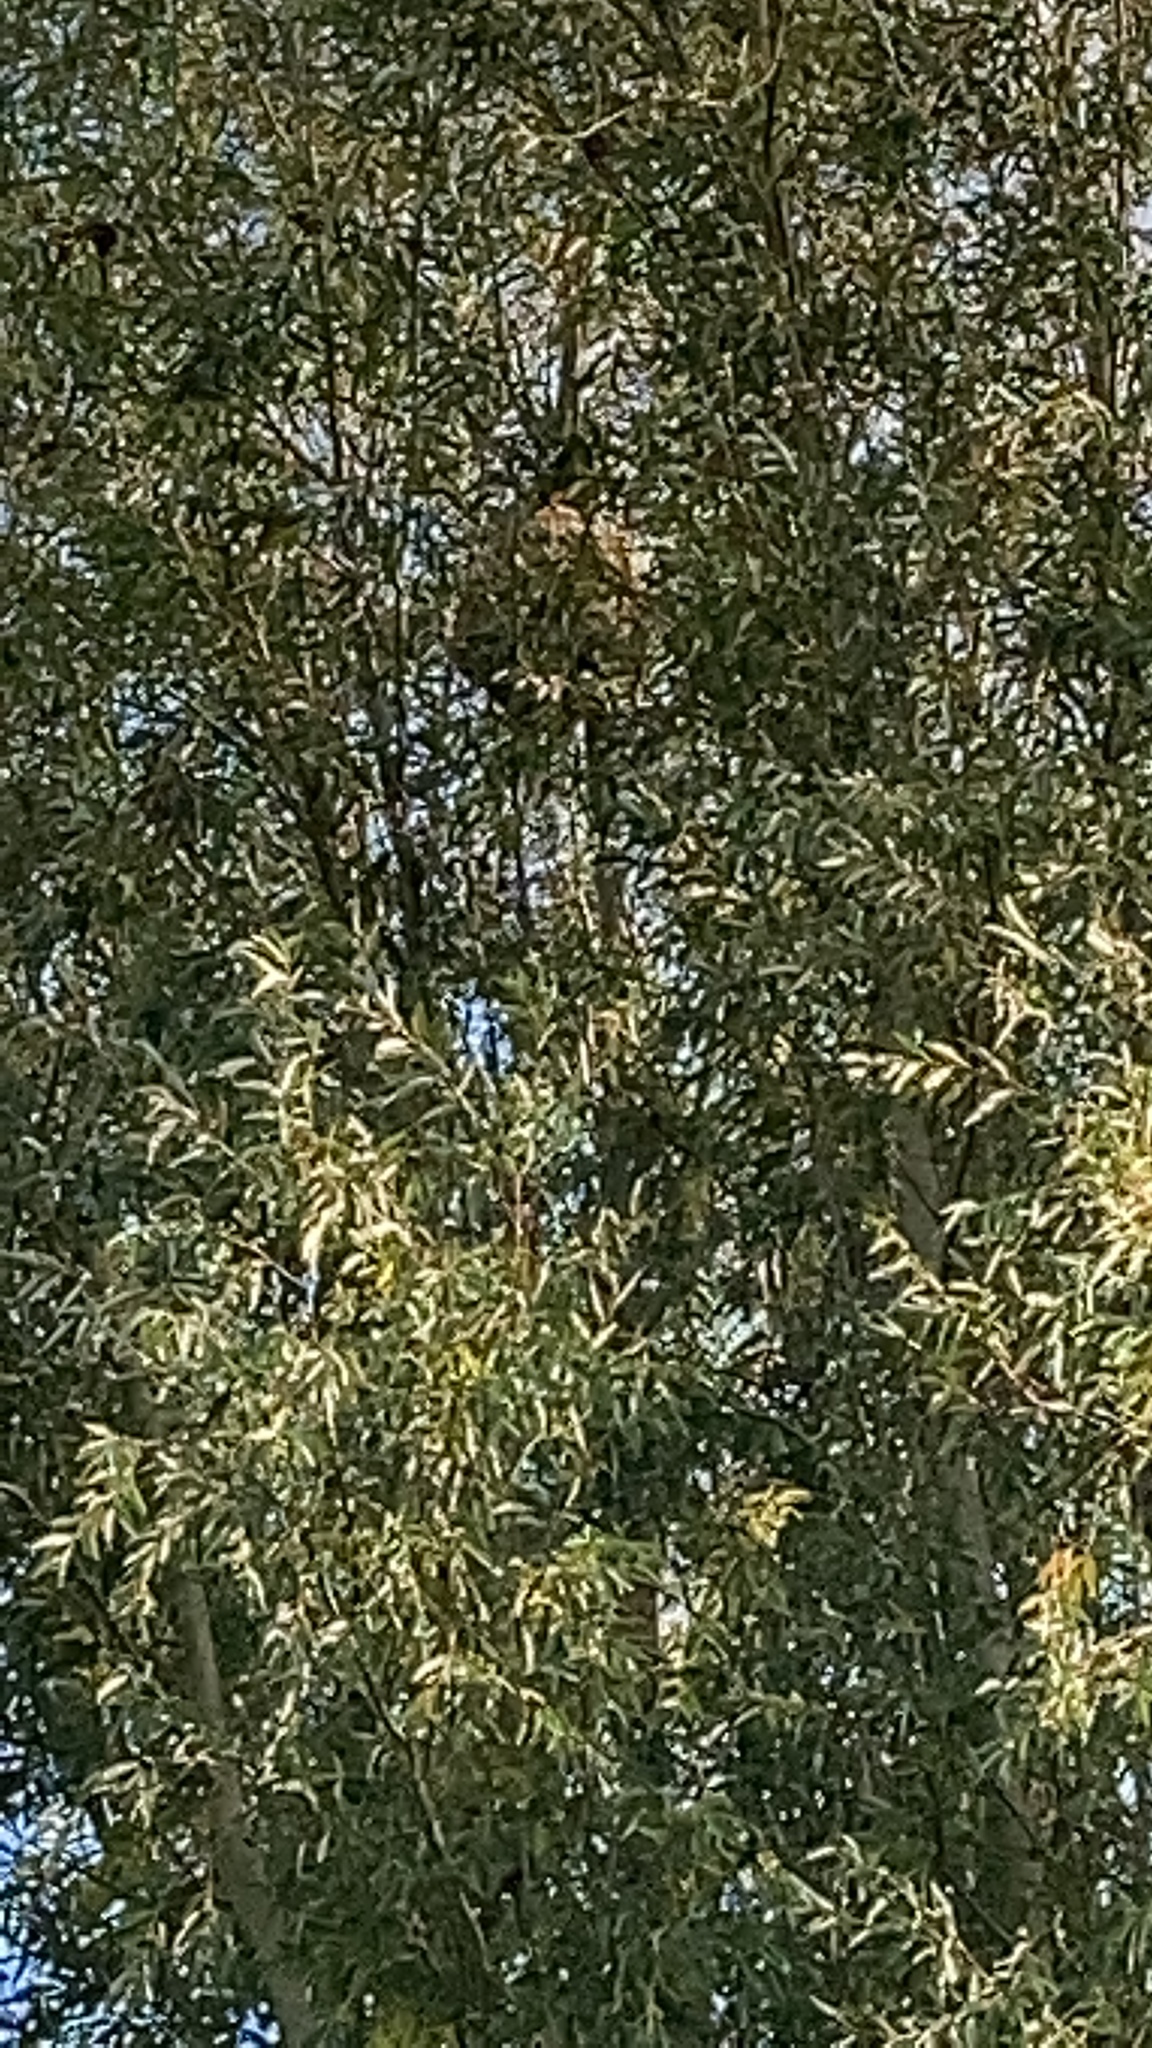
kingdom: Animalia
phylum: Arthropoda
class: Insecta
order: Hymenoptera
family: Vespidae
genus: Vespa
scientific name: Vespa velutina
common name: Asian hornet
